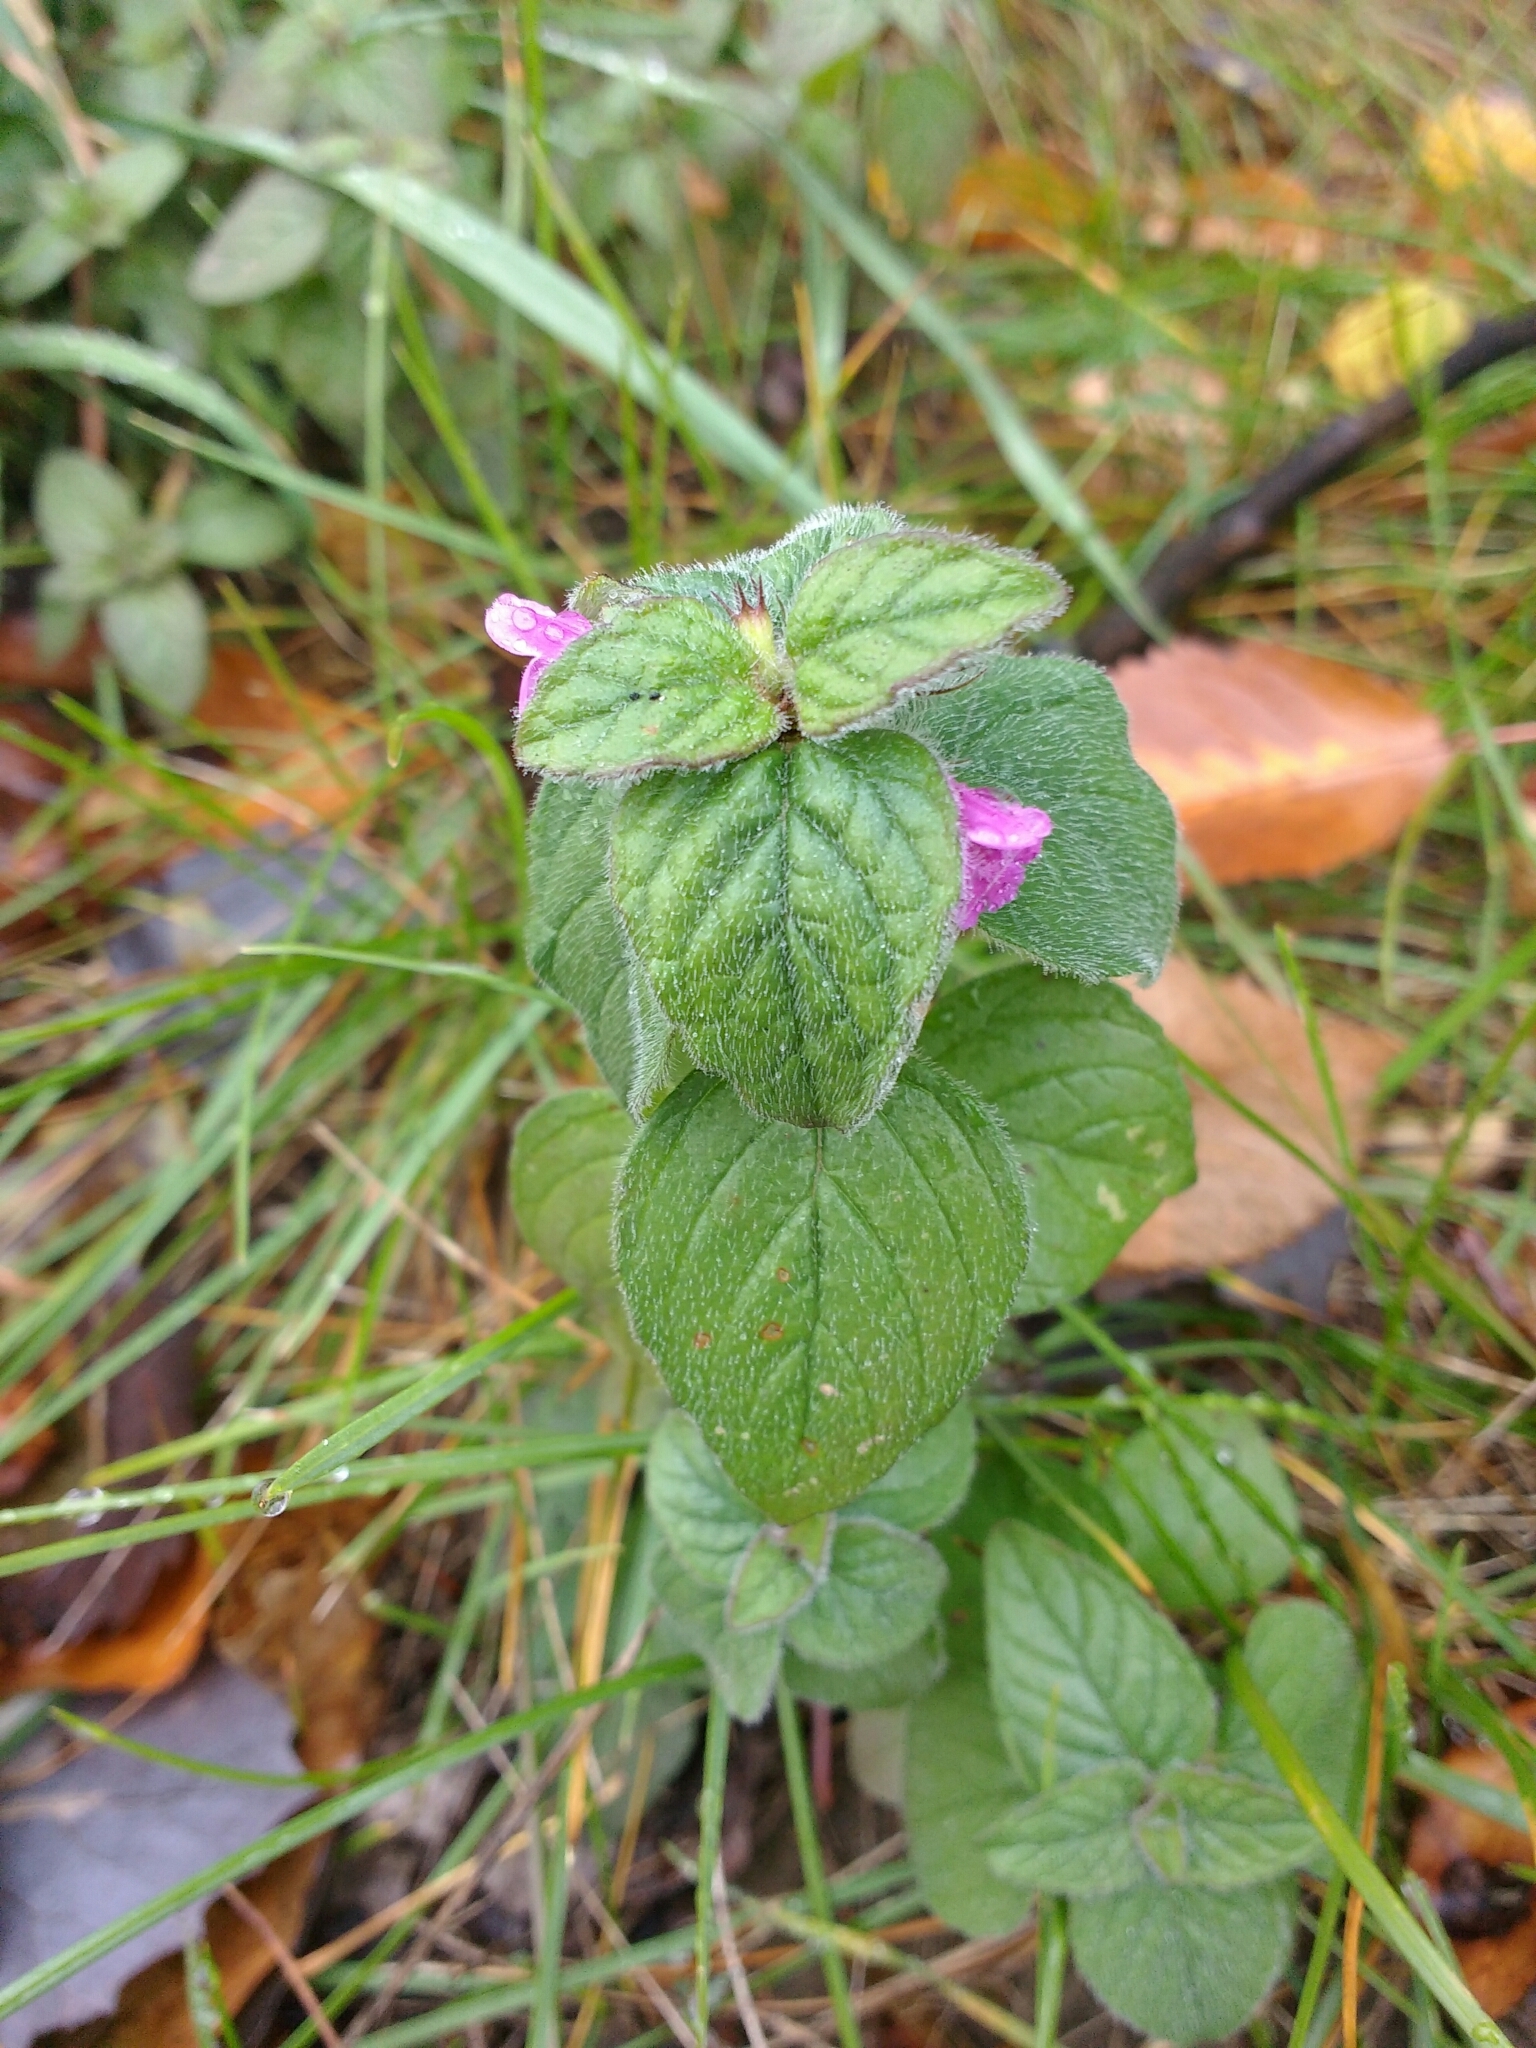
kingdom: Plantae
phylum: Tracheophyta
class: Magnoliopsida
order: Lamiales
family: Lamiaceae
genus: Clinopodium
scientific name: Clinopodium vulgare
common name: Wild basil
